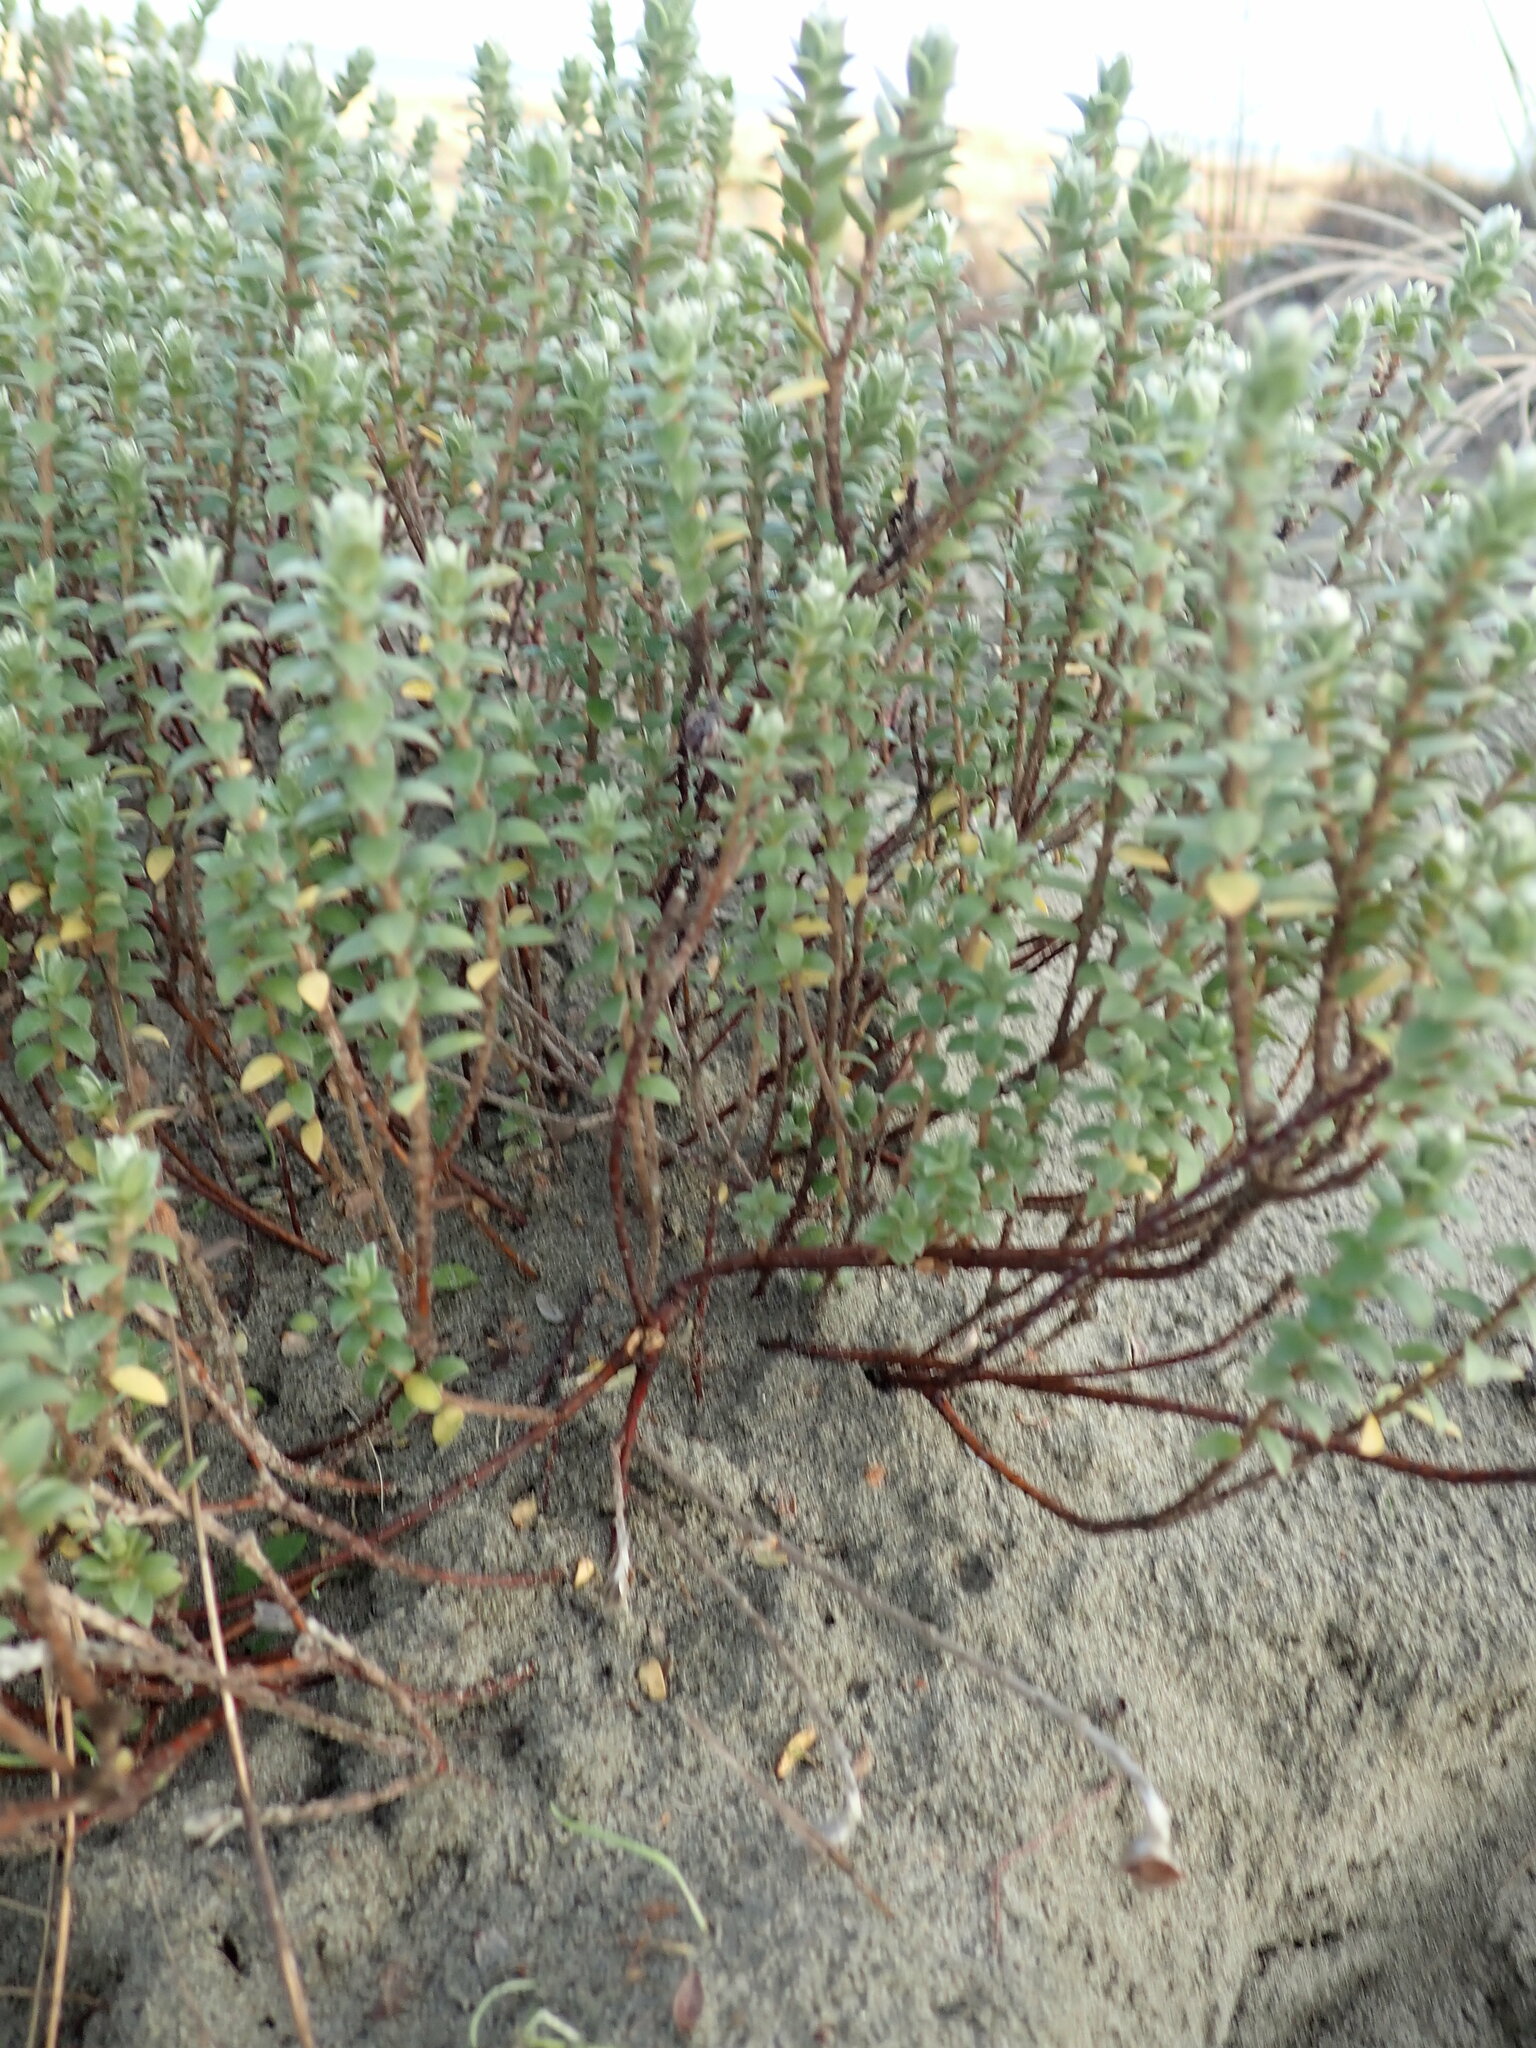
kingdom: Plantae
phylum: Tracheophyta
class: Magnoliopsida
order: Malvales
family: Thymelaeaceae
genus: Pimelea
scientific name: Pimelea villosa
